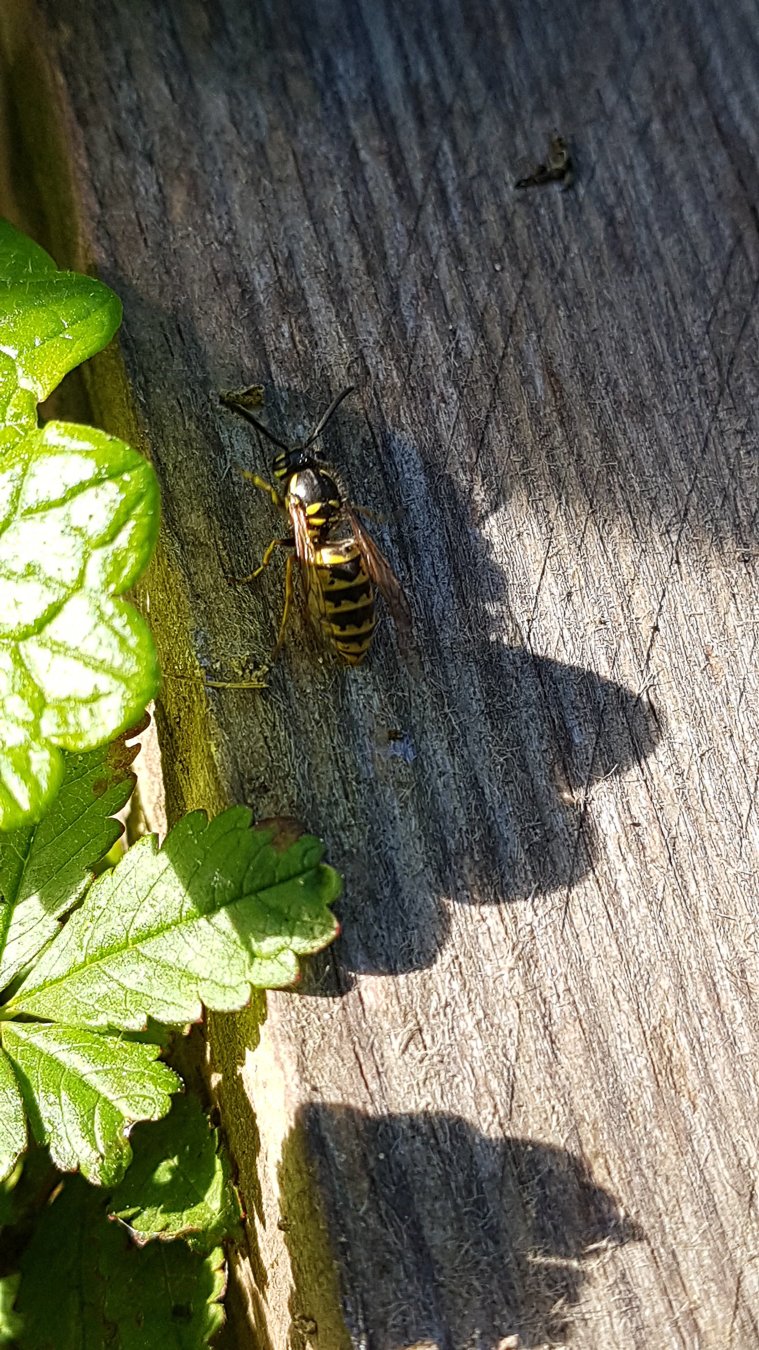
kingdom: Animalia
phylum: Arthropoda
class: Insecta
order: Hymenoptera
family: Vespidae
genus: Vespula
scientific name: Vespula vulgaris
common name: Common wasp
